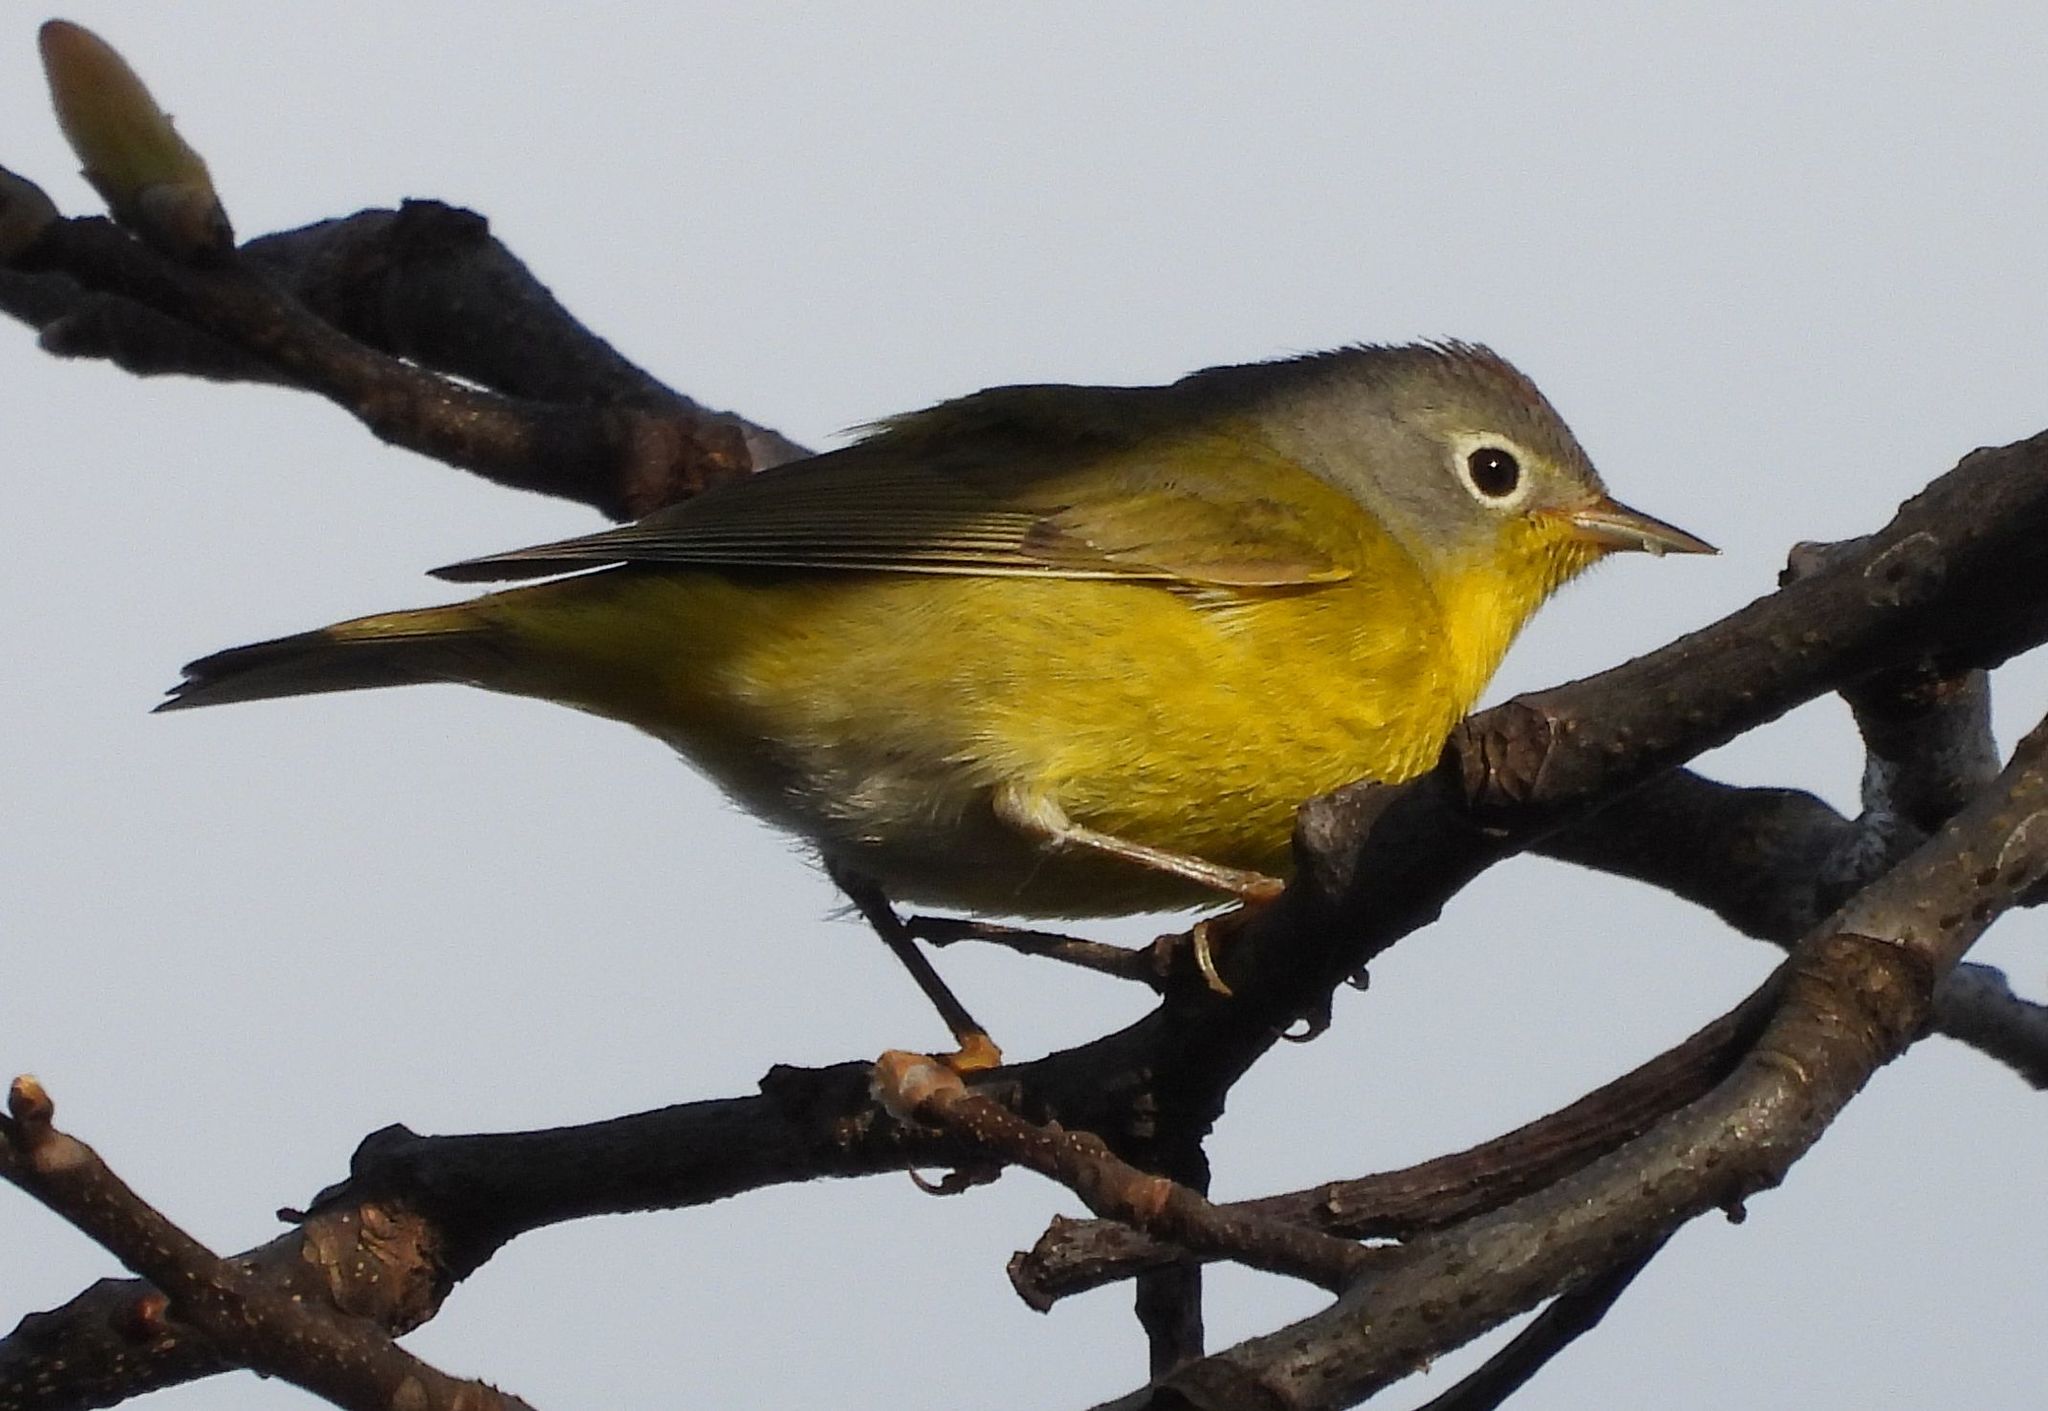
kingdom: Animalia
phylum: Chordata
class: Aves
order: Passeriformes
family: Parulidae
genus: Leiothlypis
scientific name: Leiothlypis ruficapilla
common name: Nashville warbler
